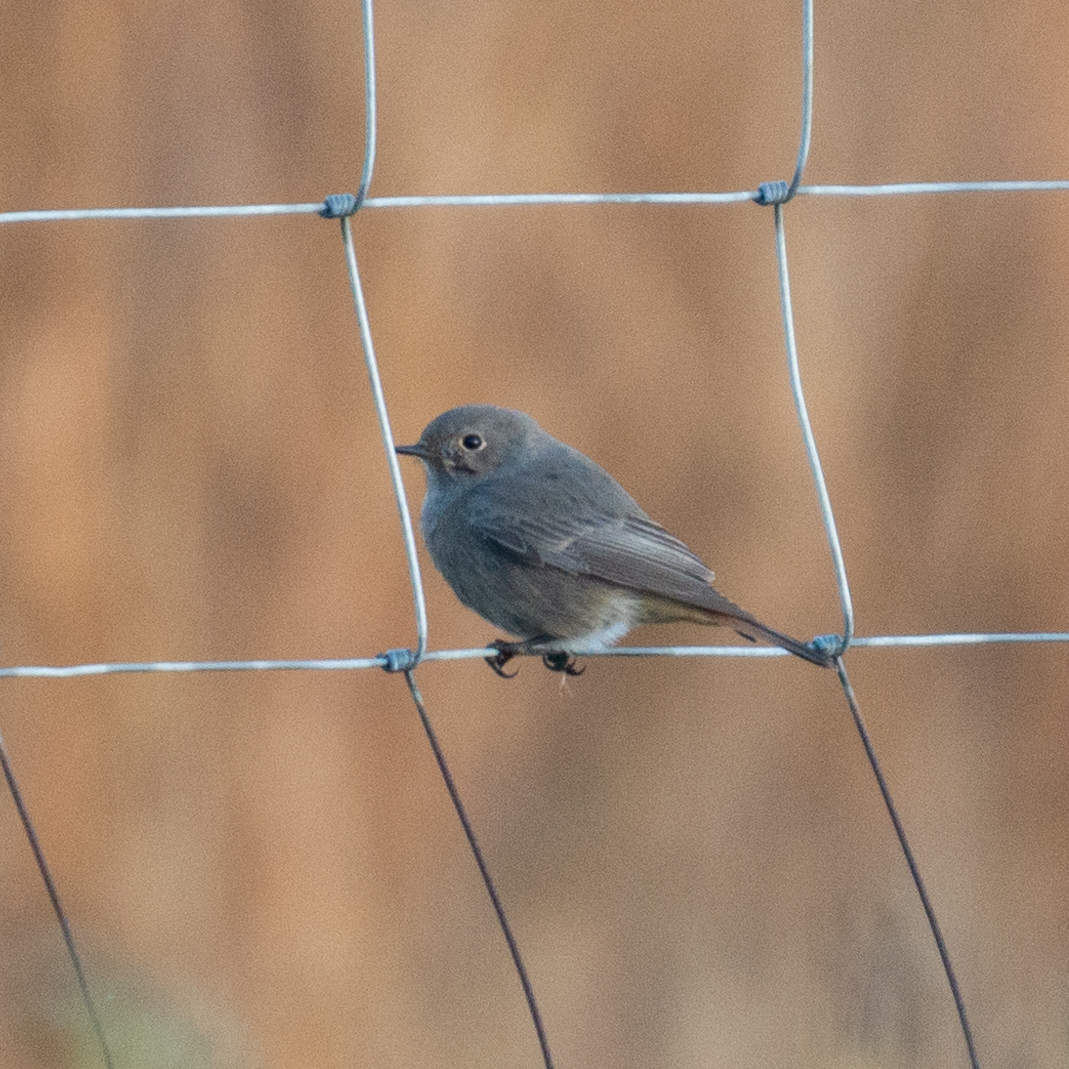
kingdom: Animalia
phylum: Chordata
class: Aves
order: Passeriformes
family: Muscicapidae
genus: Phoenicurus
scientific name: Phoenicurus ochruros
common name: Black redstart
